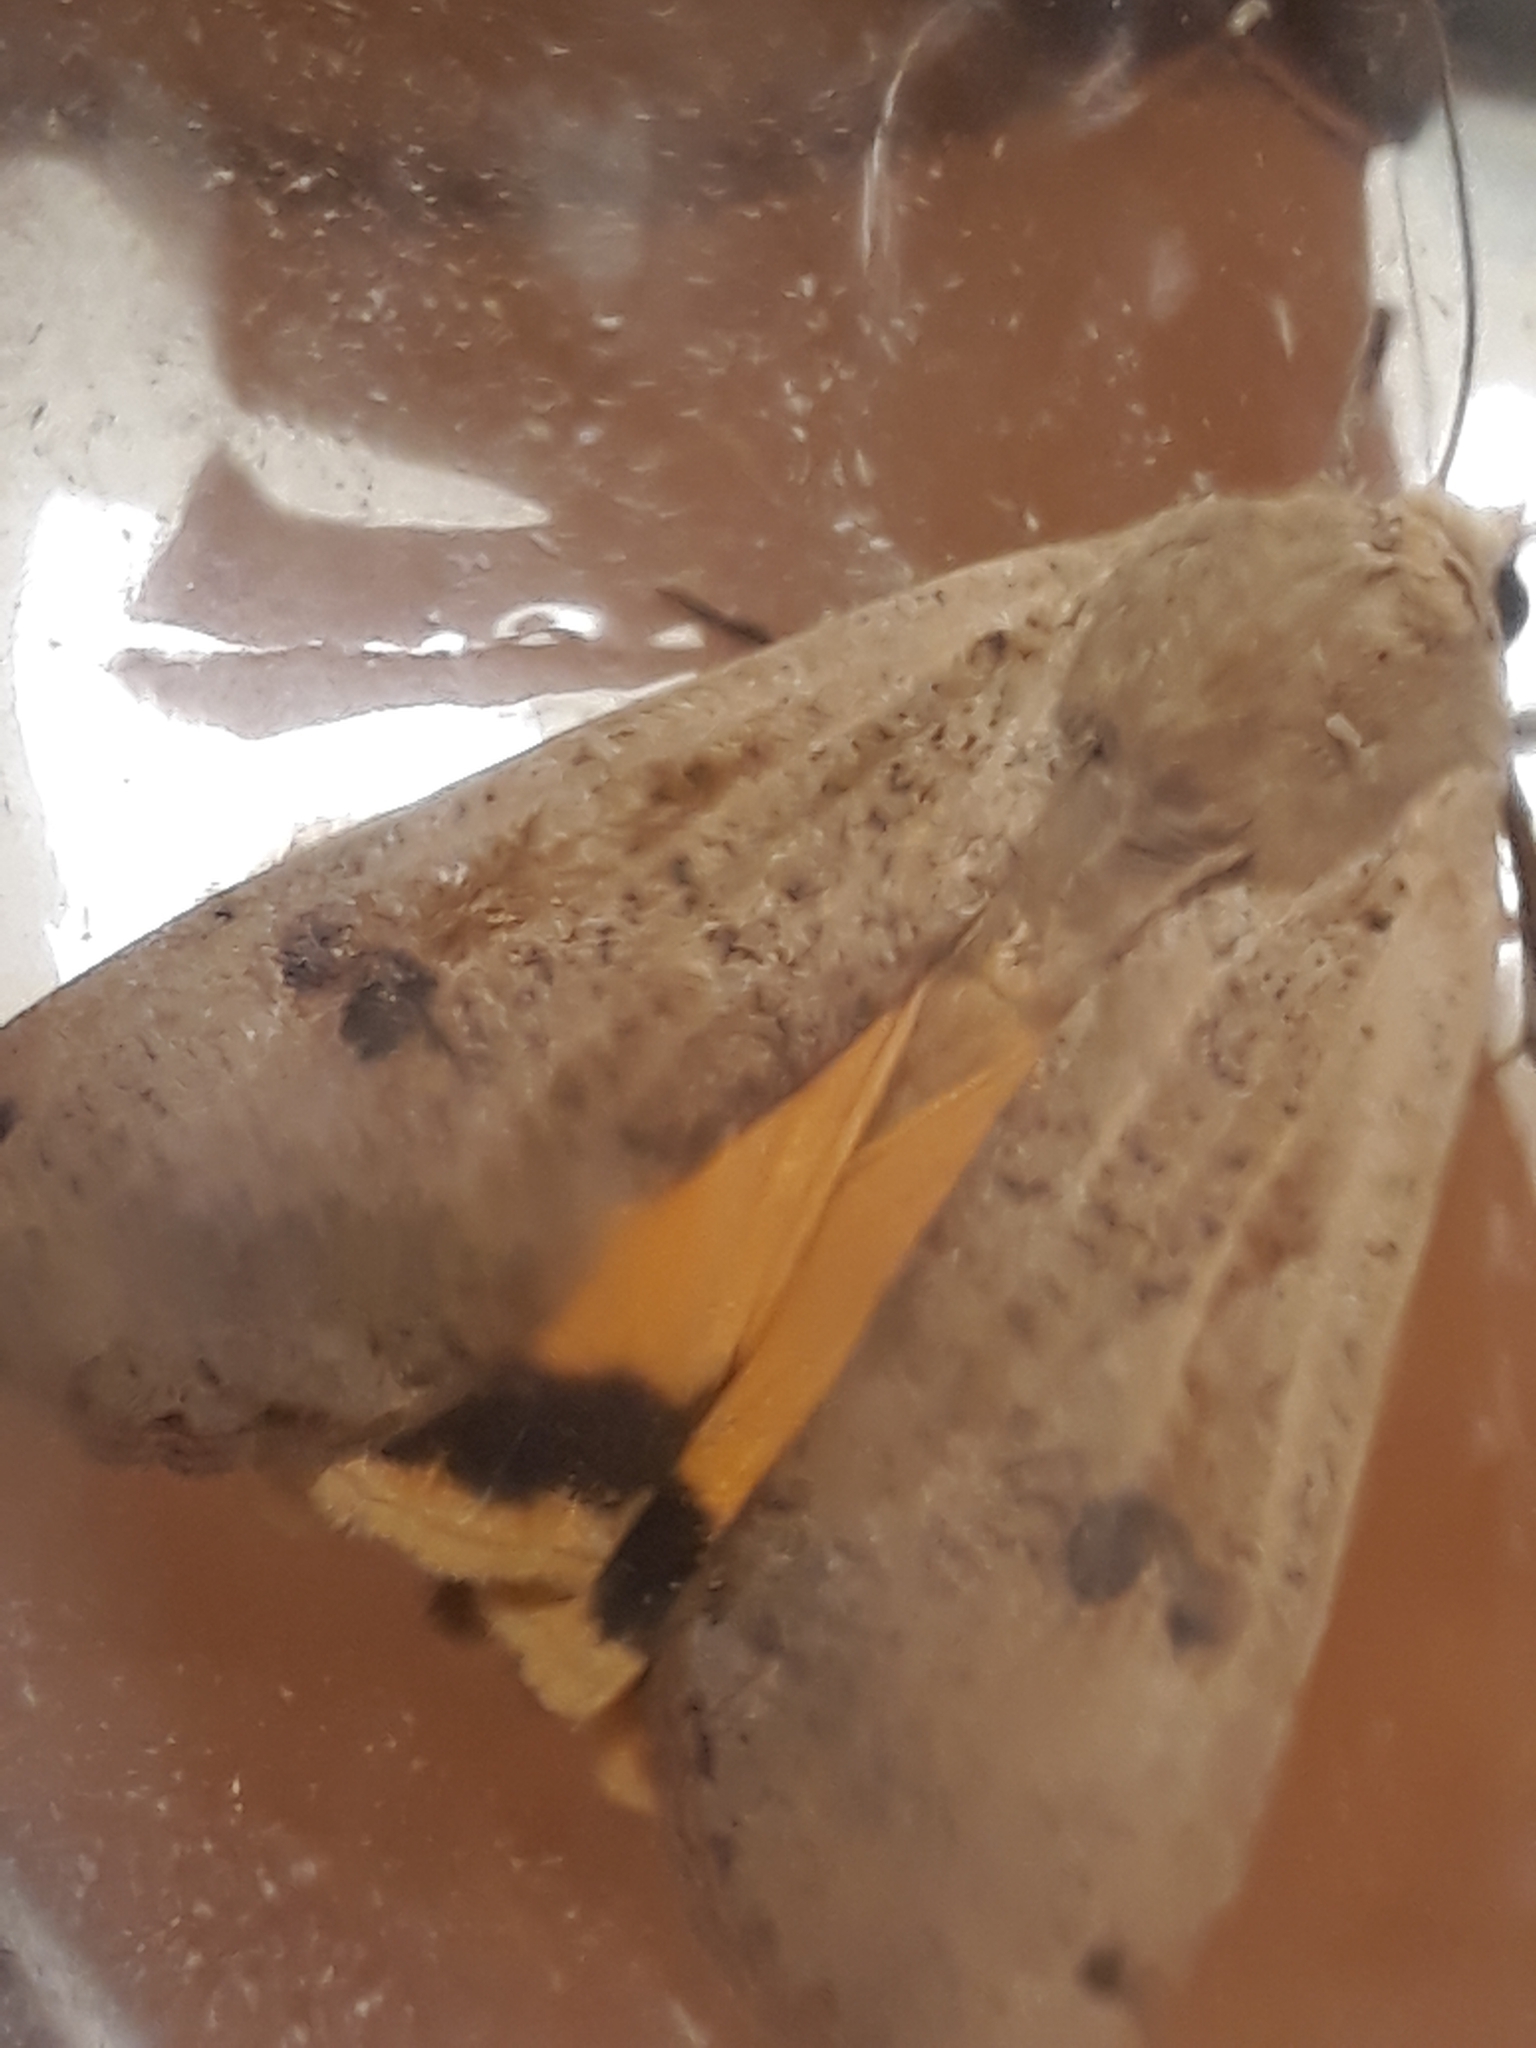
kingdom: Animalia
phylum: Arthropoda
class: Insecta
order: Lepidoptera
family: Noctuidae
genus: Noctua
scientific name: Noctua pronuba
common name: Large yellow underwing
